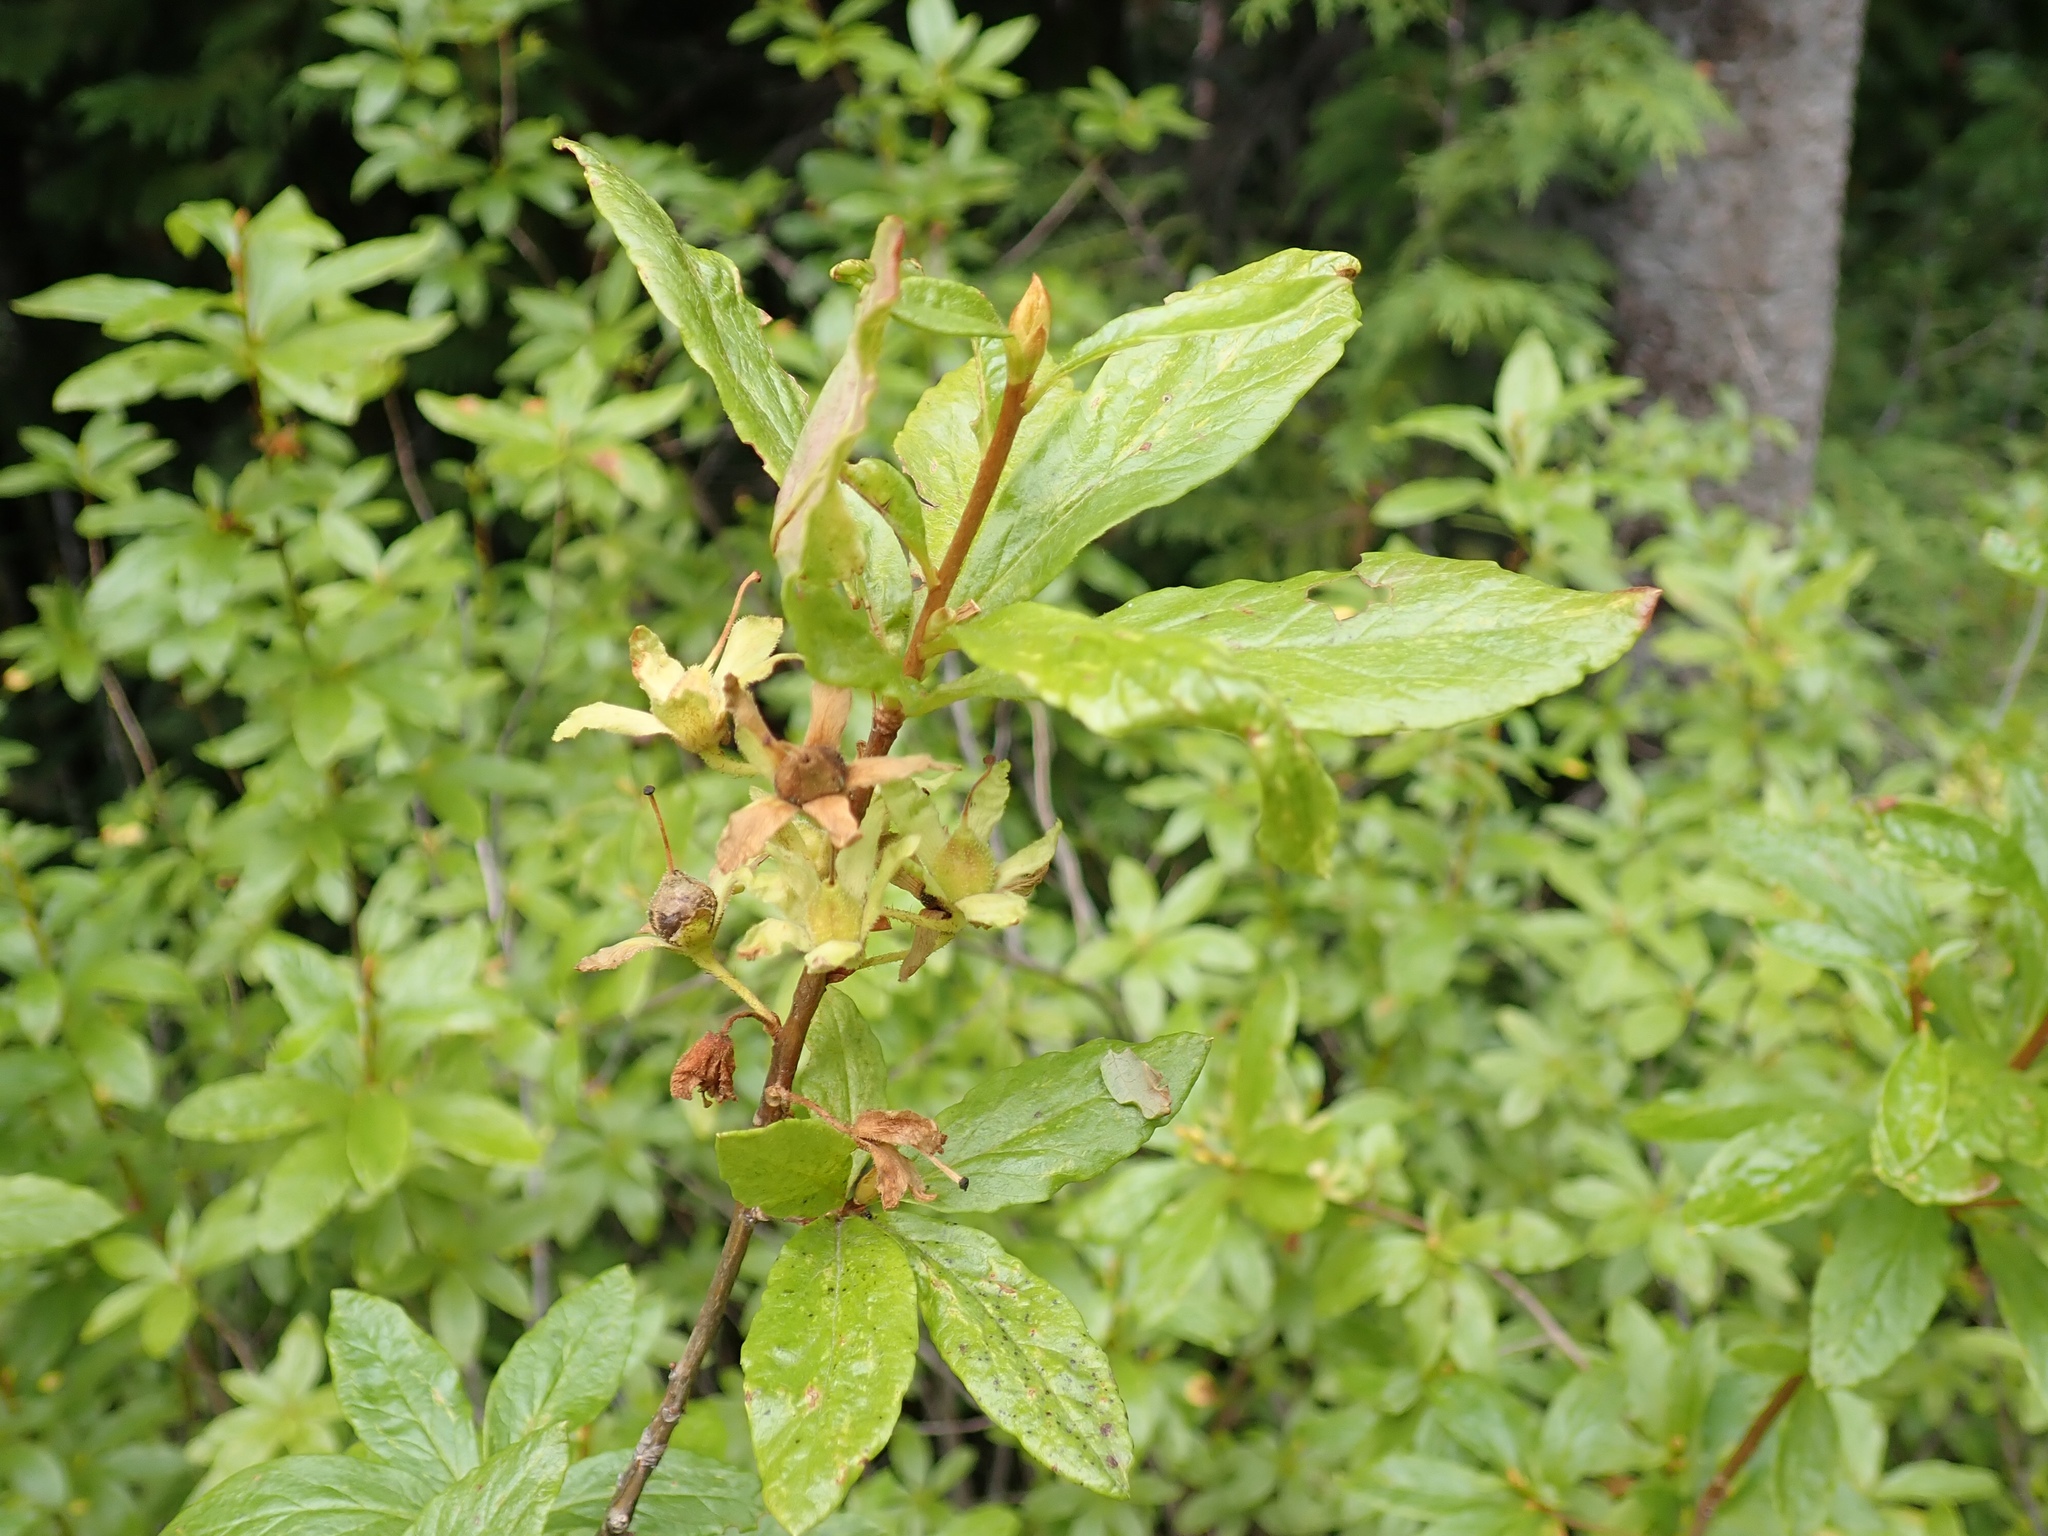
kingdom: Plantae
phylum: Tracheophyta
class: Magnoliopsida
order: Ericales
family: Ericaceae
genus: Rhododendron
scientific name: Rhododendron albiflorum
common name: White rhododendron
